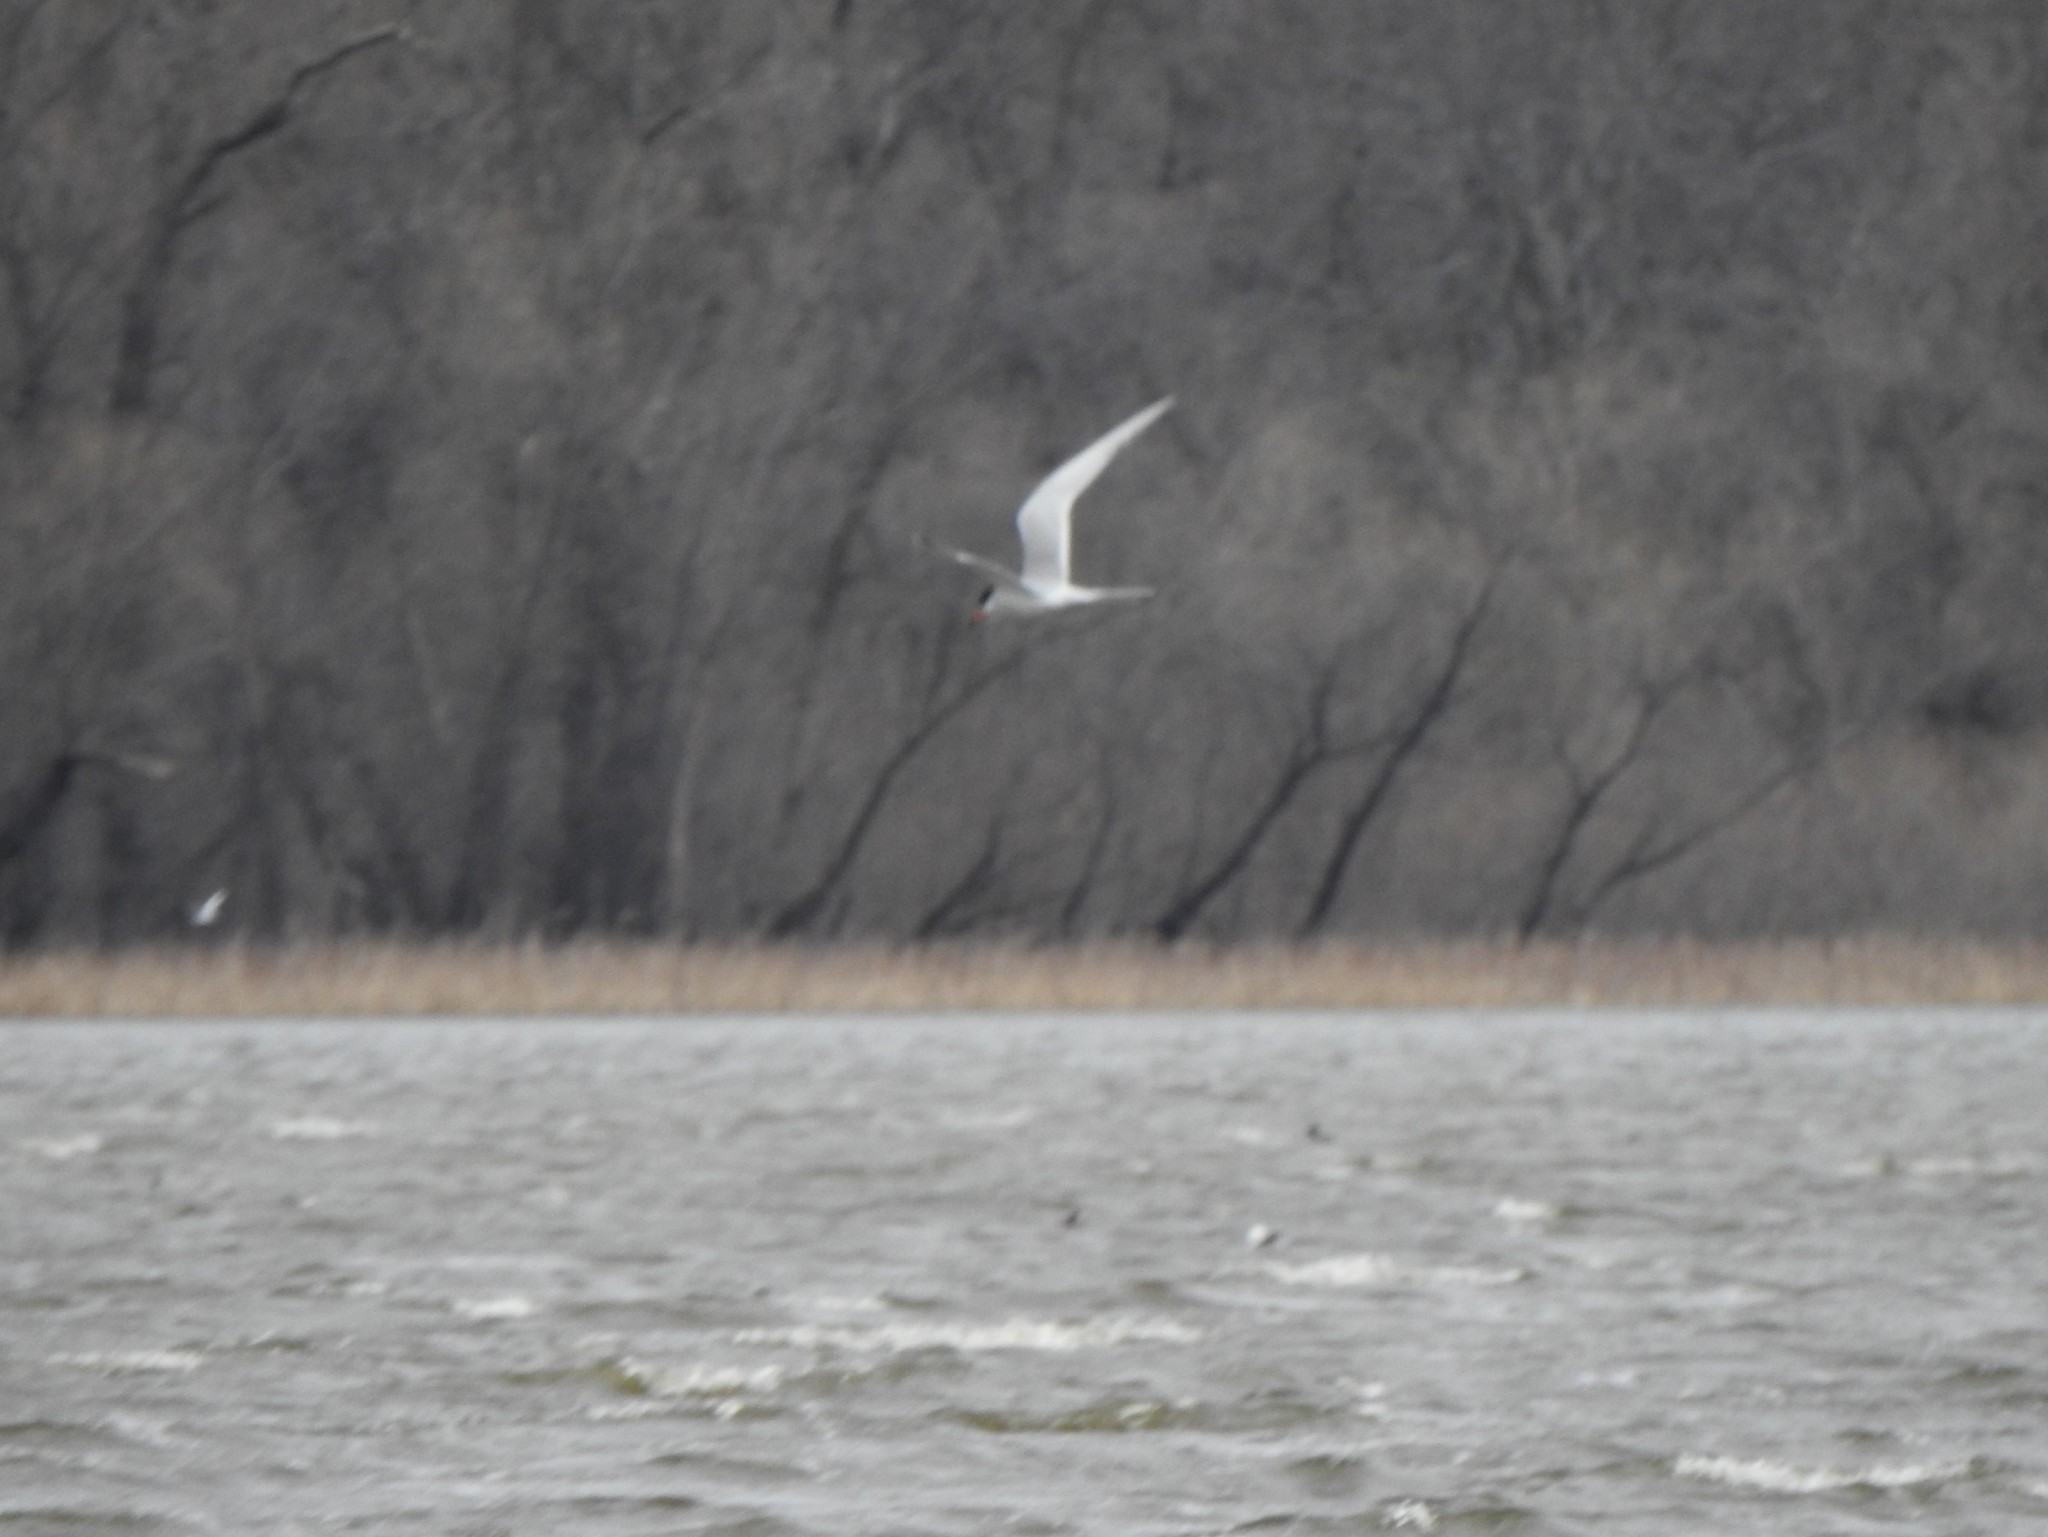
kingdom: Animalia
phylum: Chordata
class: Aves
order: Charadriiformes
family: Laridae
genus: Sterna
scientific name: Sterna forsteri
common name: Forster's tern
